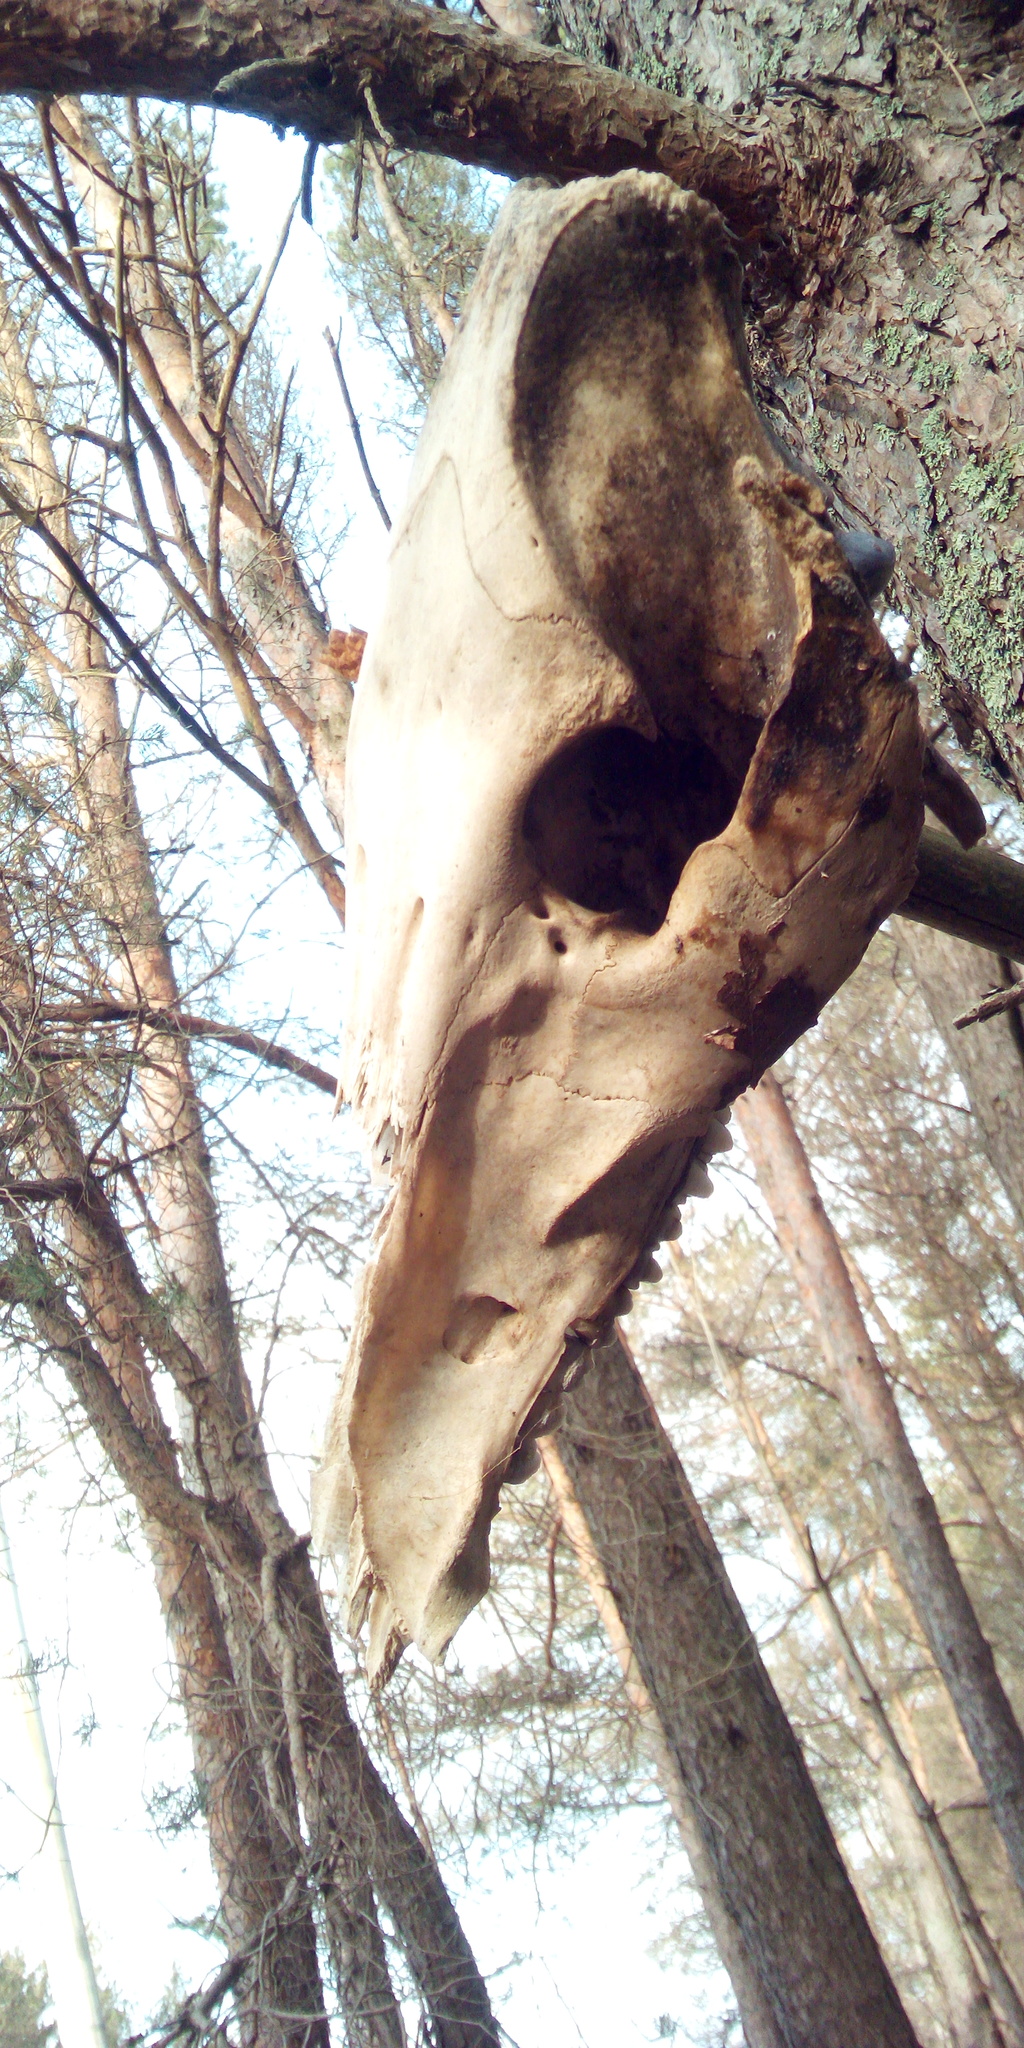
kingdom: Animalia
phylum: Chordata
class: Mammalia
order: Artiodactyla
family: Suidae
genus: Sus
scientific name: Sus scrofa
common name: Wild boar
